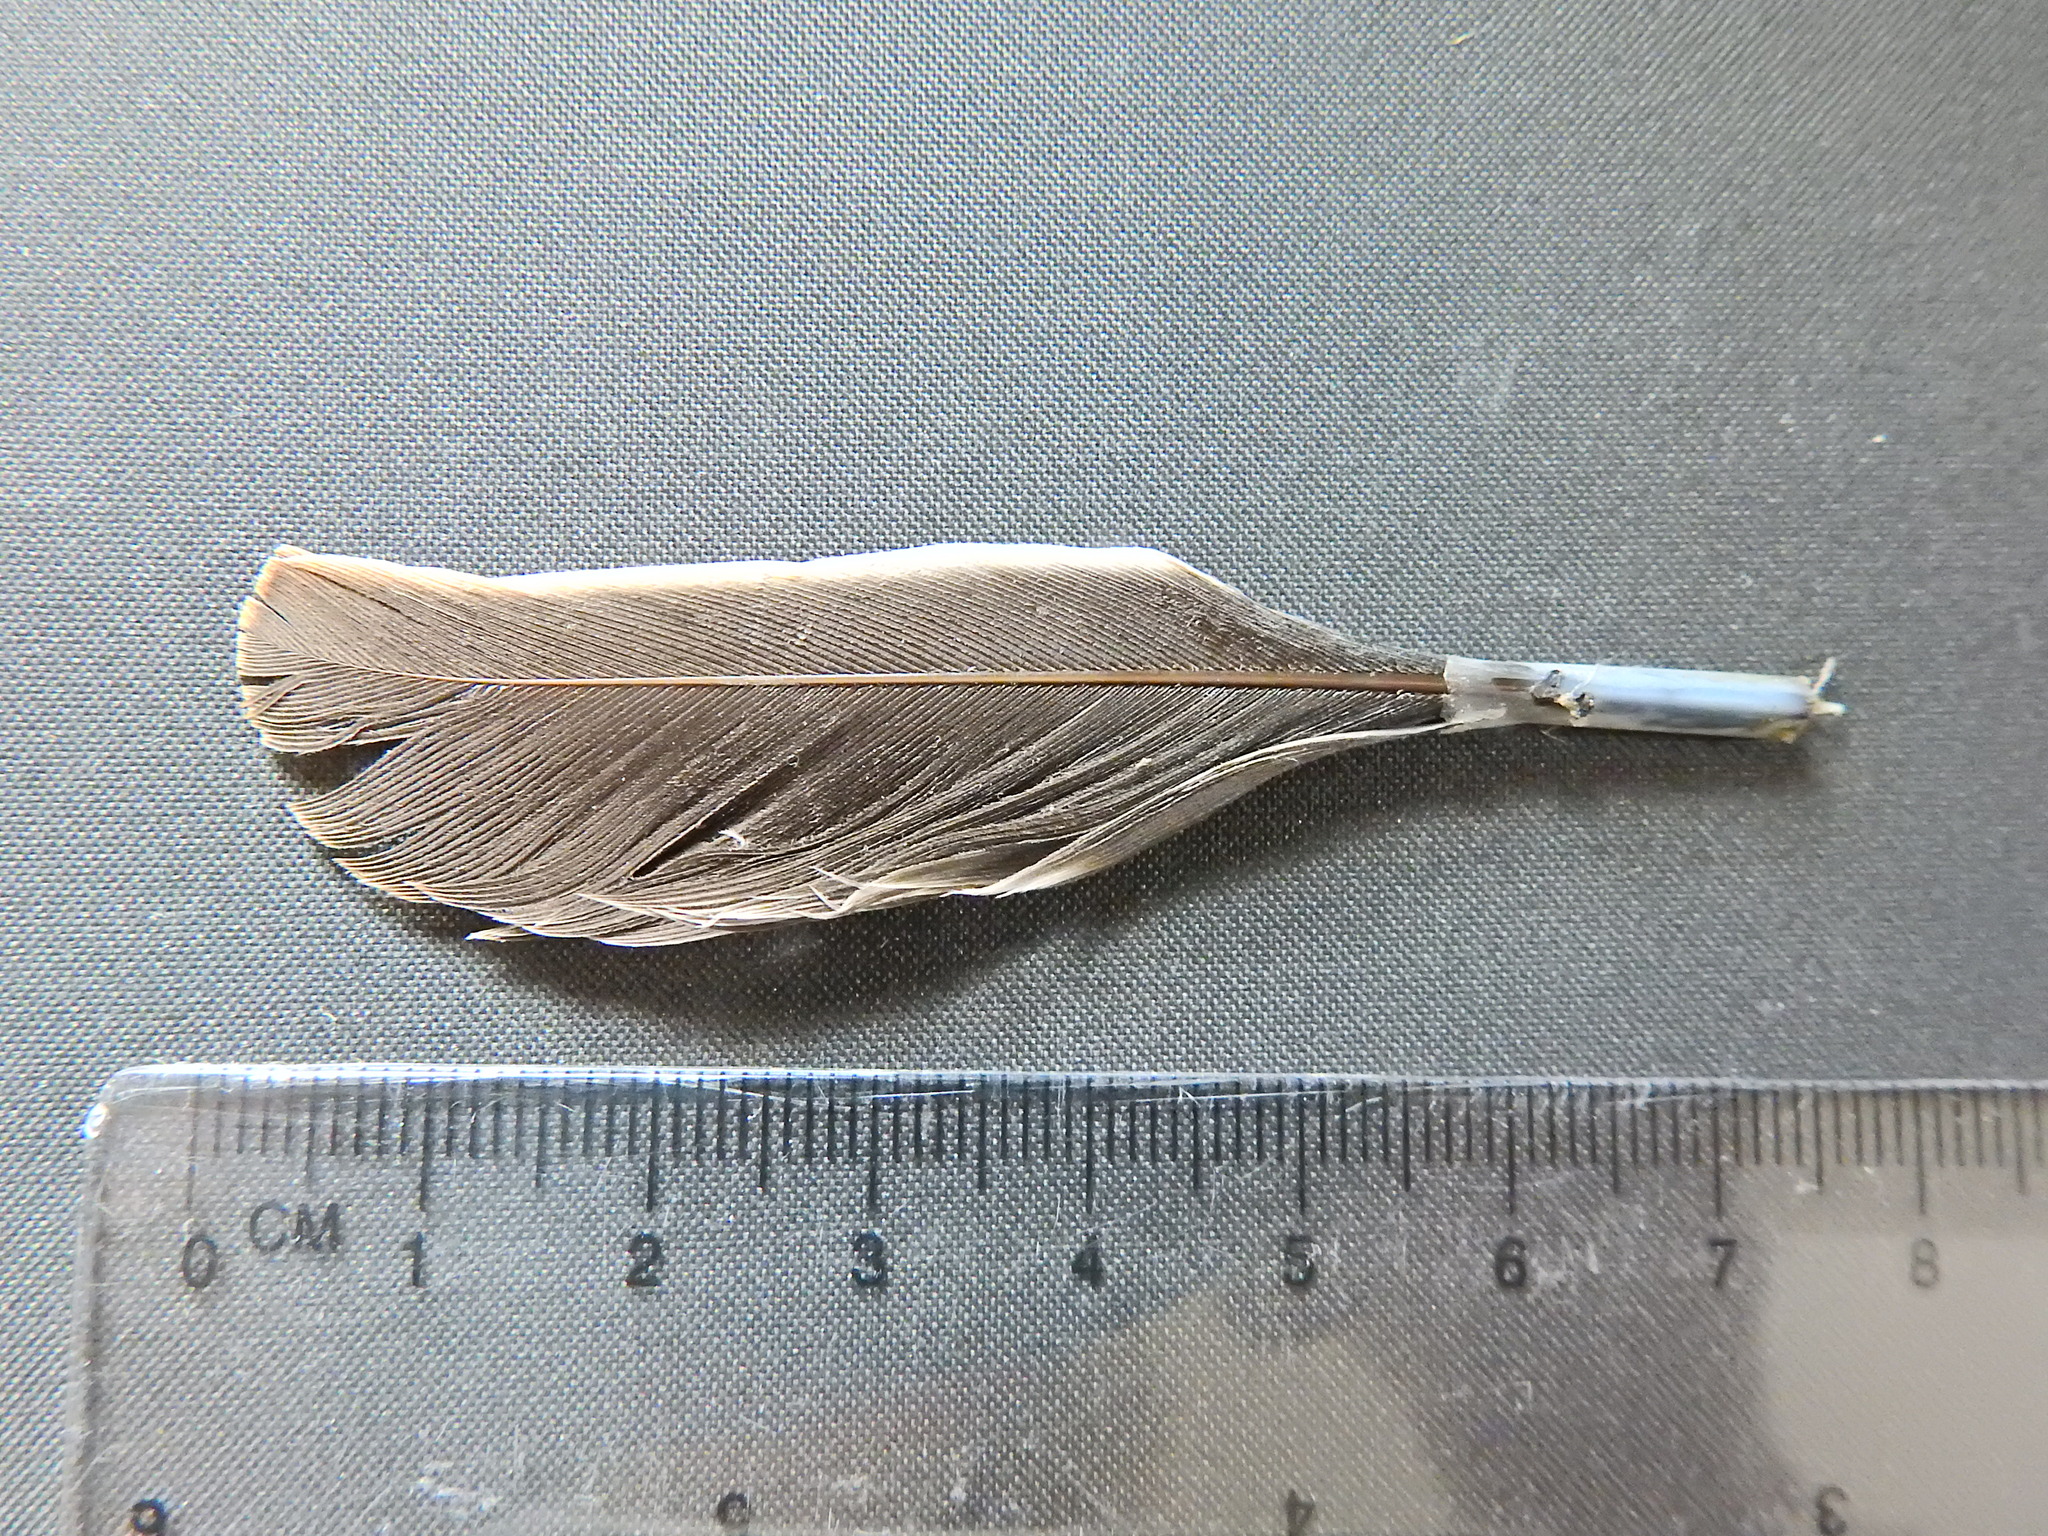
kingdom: Animalia
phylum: Chordata
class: Aves
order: Columbiformes
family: Columbidae
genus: Columba
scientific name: Columba palumbus
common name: Common wood pigeon
